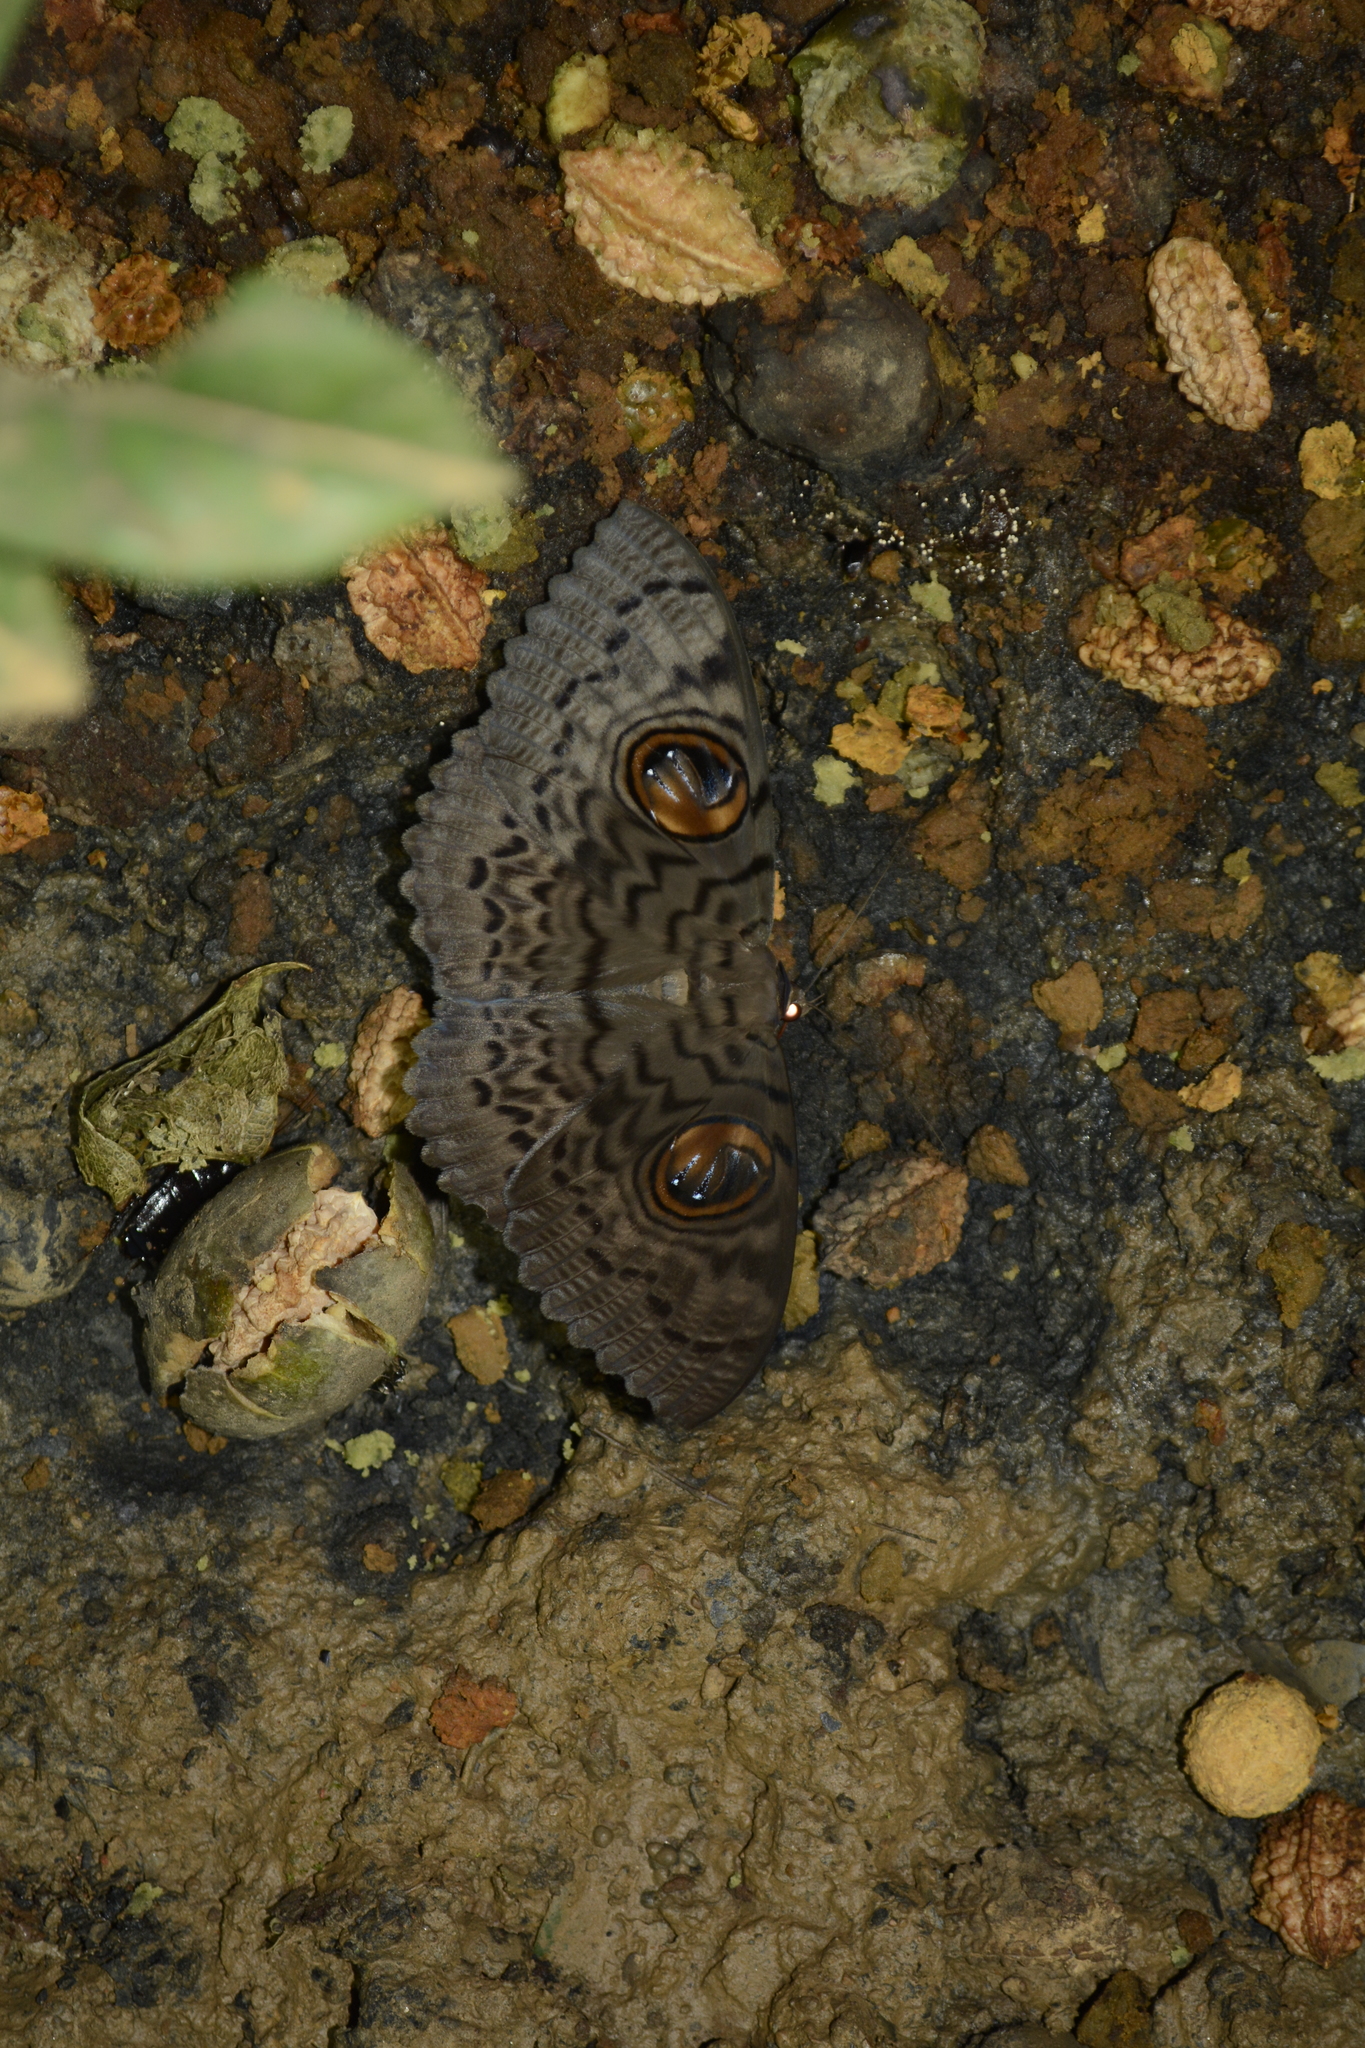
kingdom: Animalia
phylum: Arthropoda
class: Insecta
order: Lepidoptera
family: Erebidae
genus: Erebus
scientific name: Erebus macrops
